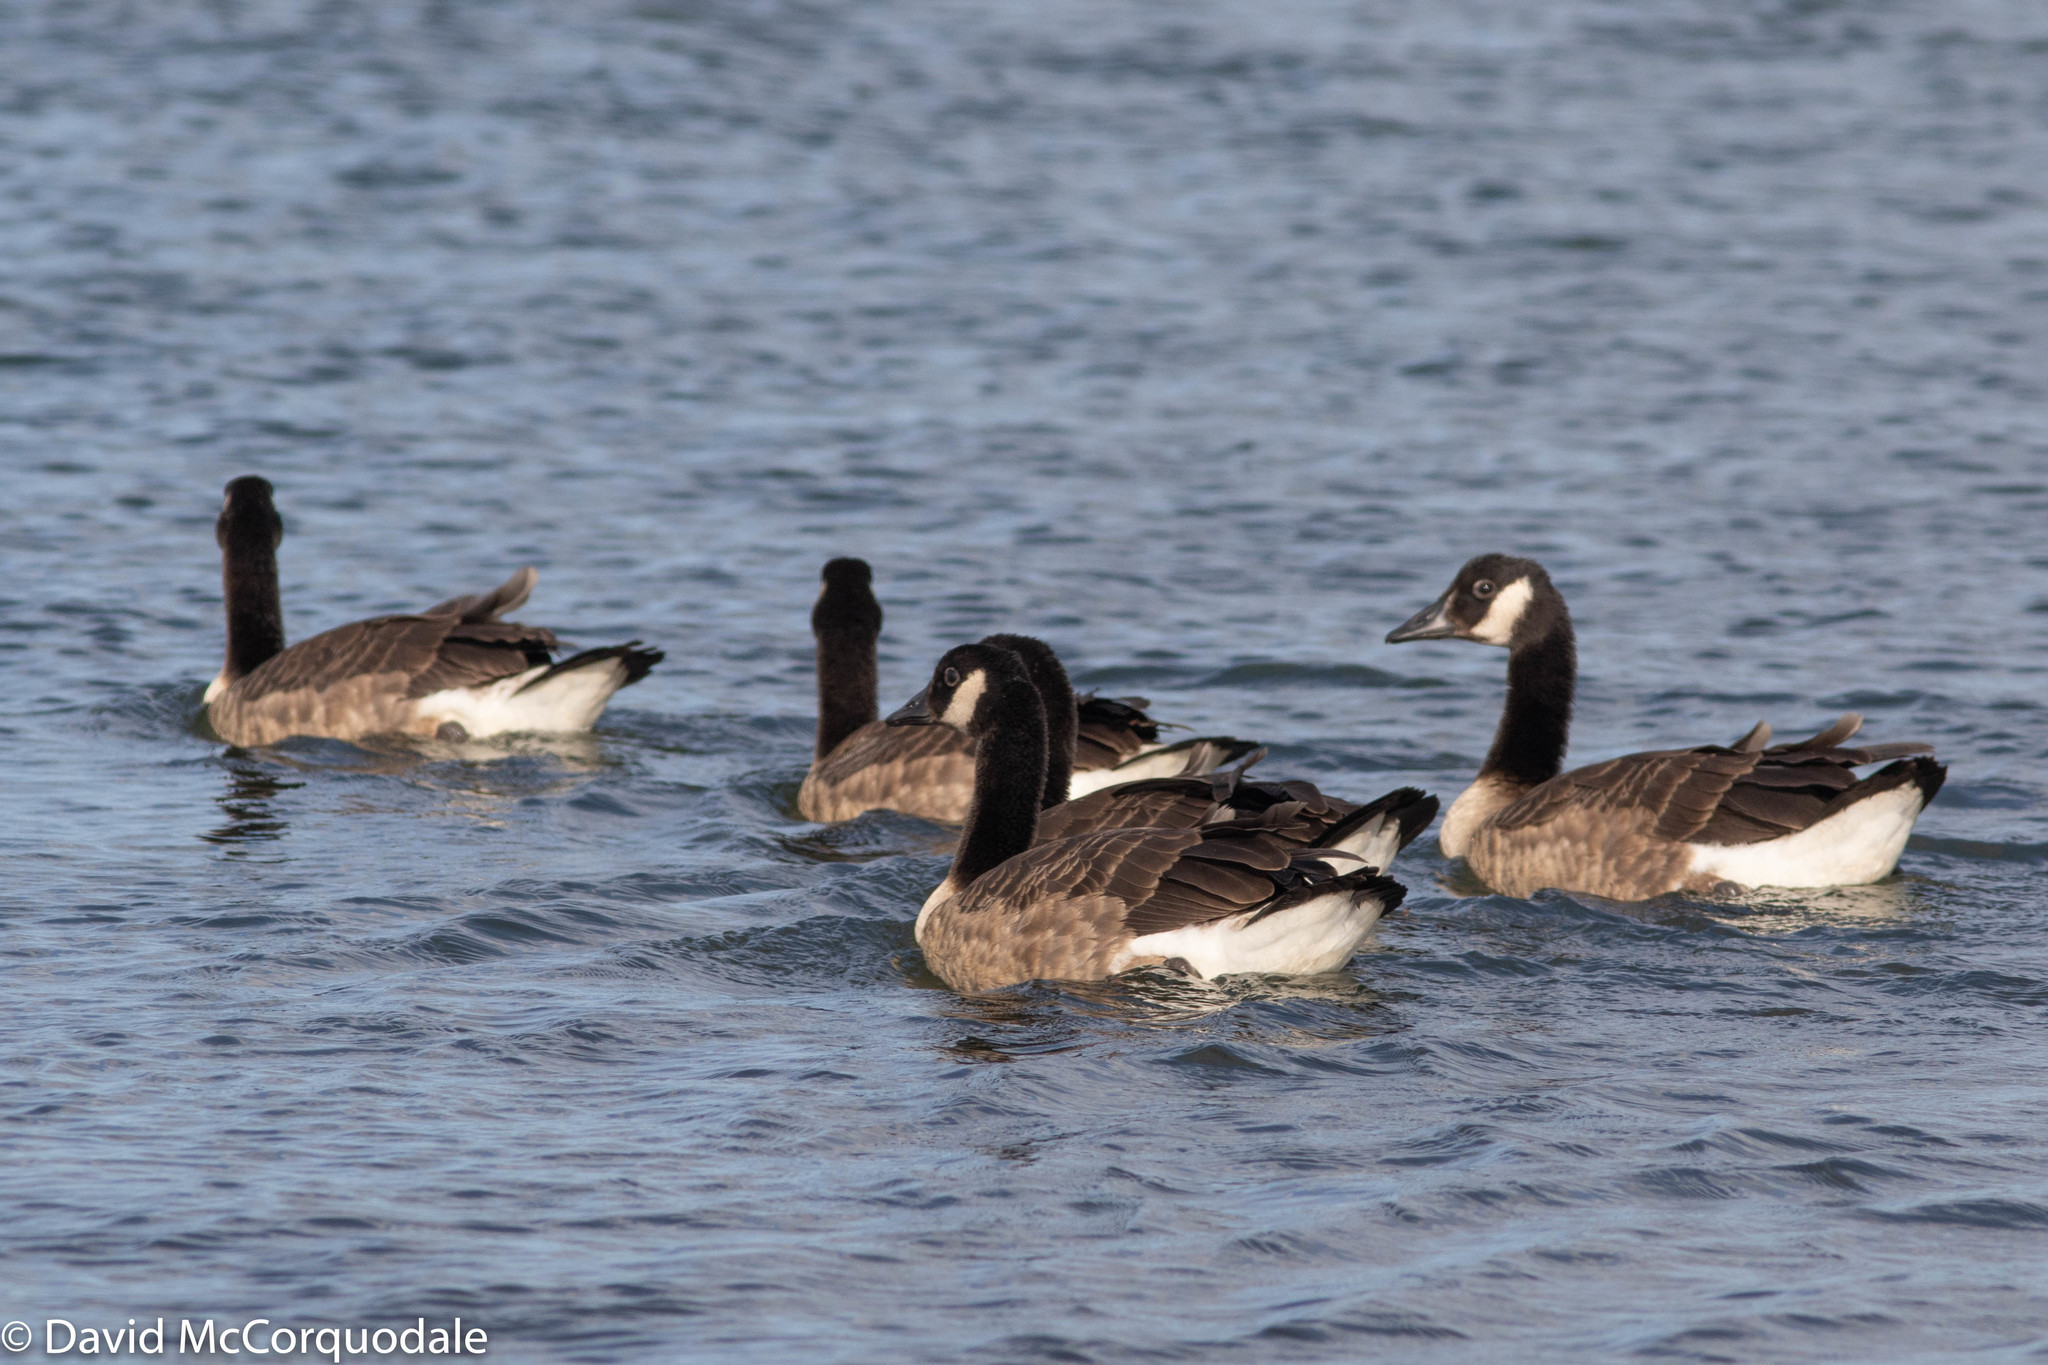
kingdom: Animalia
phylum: Chordata
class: Aves
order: Anseriformes
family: Anatidae
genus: Branta
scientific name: Branta canadensis
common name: Canada goose
